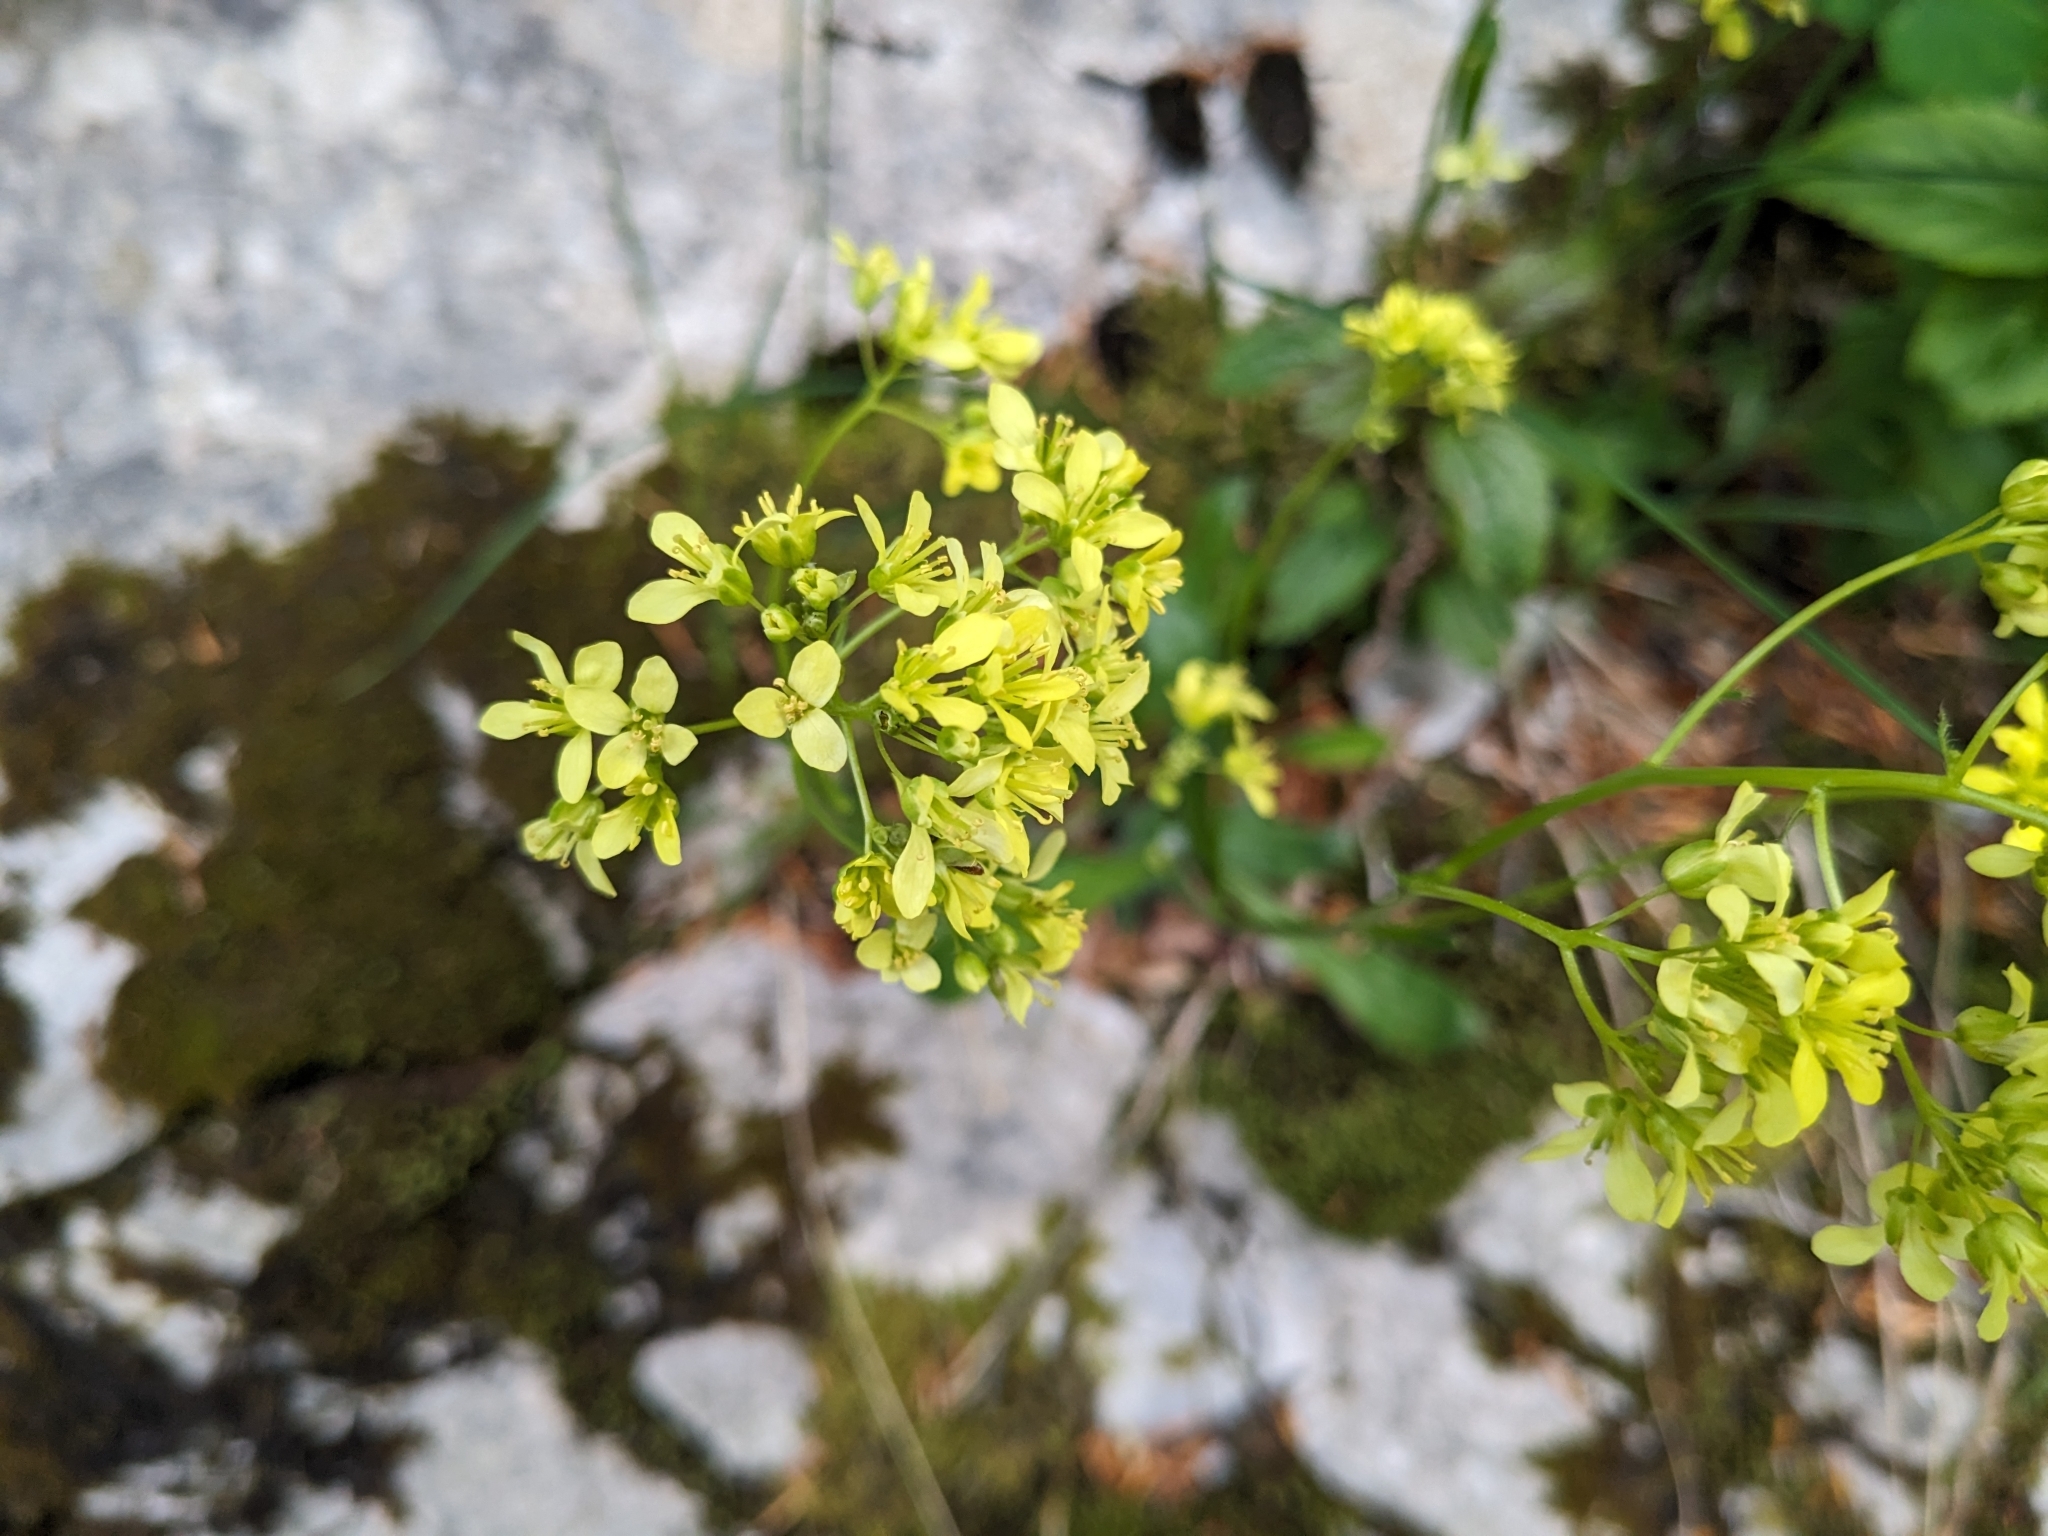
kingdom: Plantae
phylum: Tracheophyta
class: Magnoliopsida
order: Brassicales
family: Brassicaceae
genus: Biscutella
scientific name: Biscutella laevigata
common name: Buckler mustard
